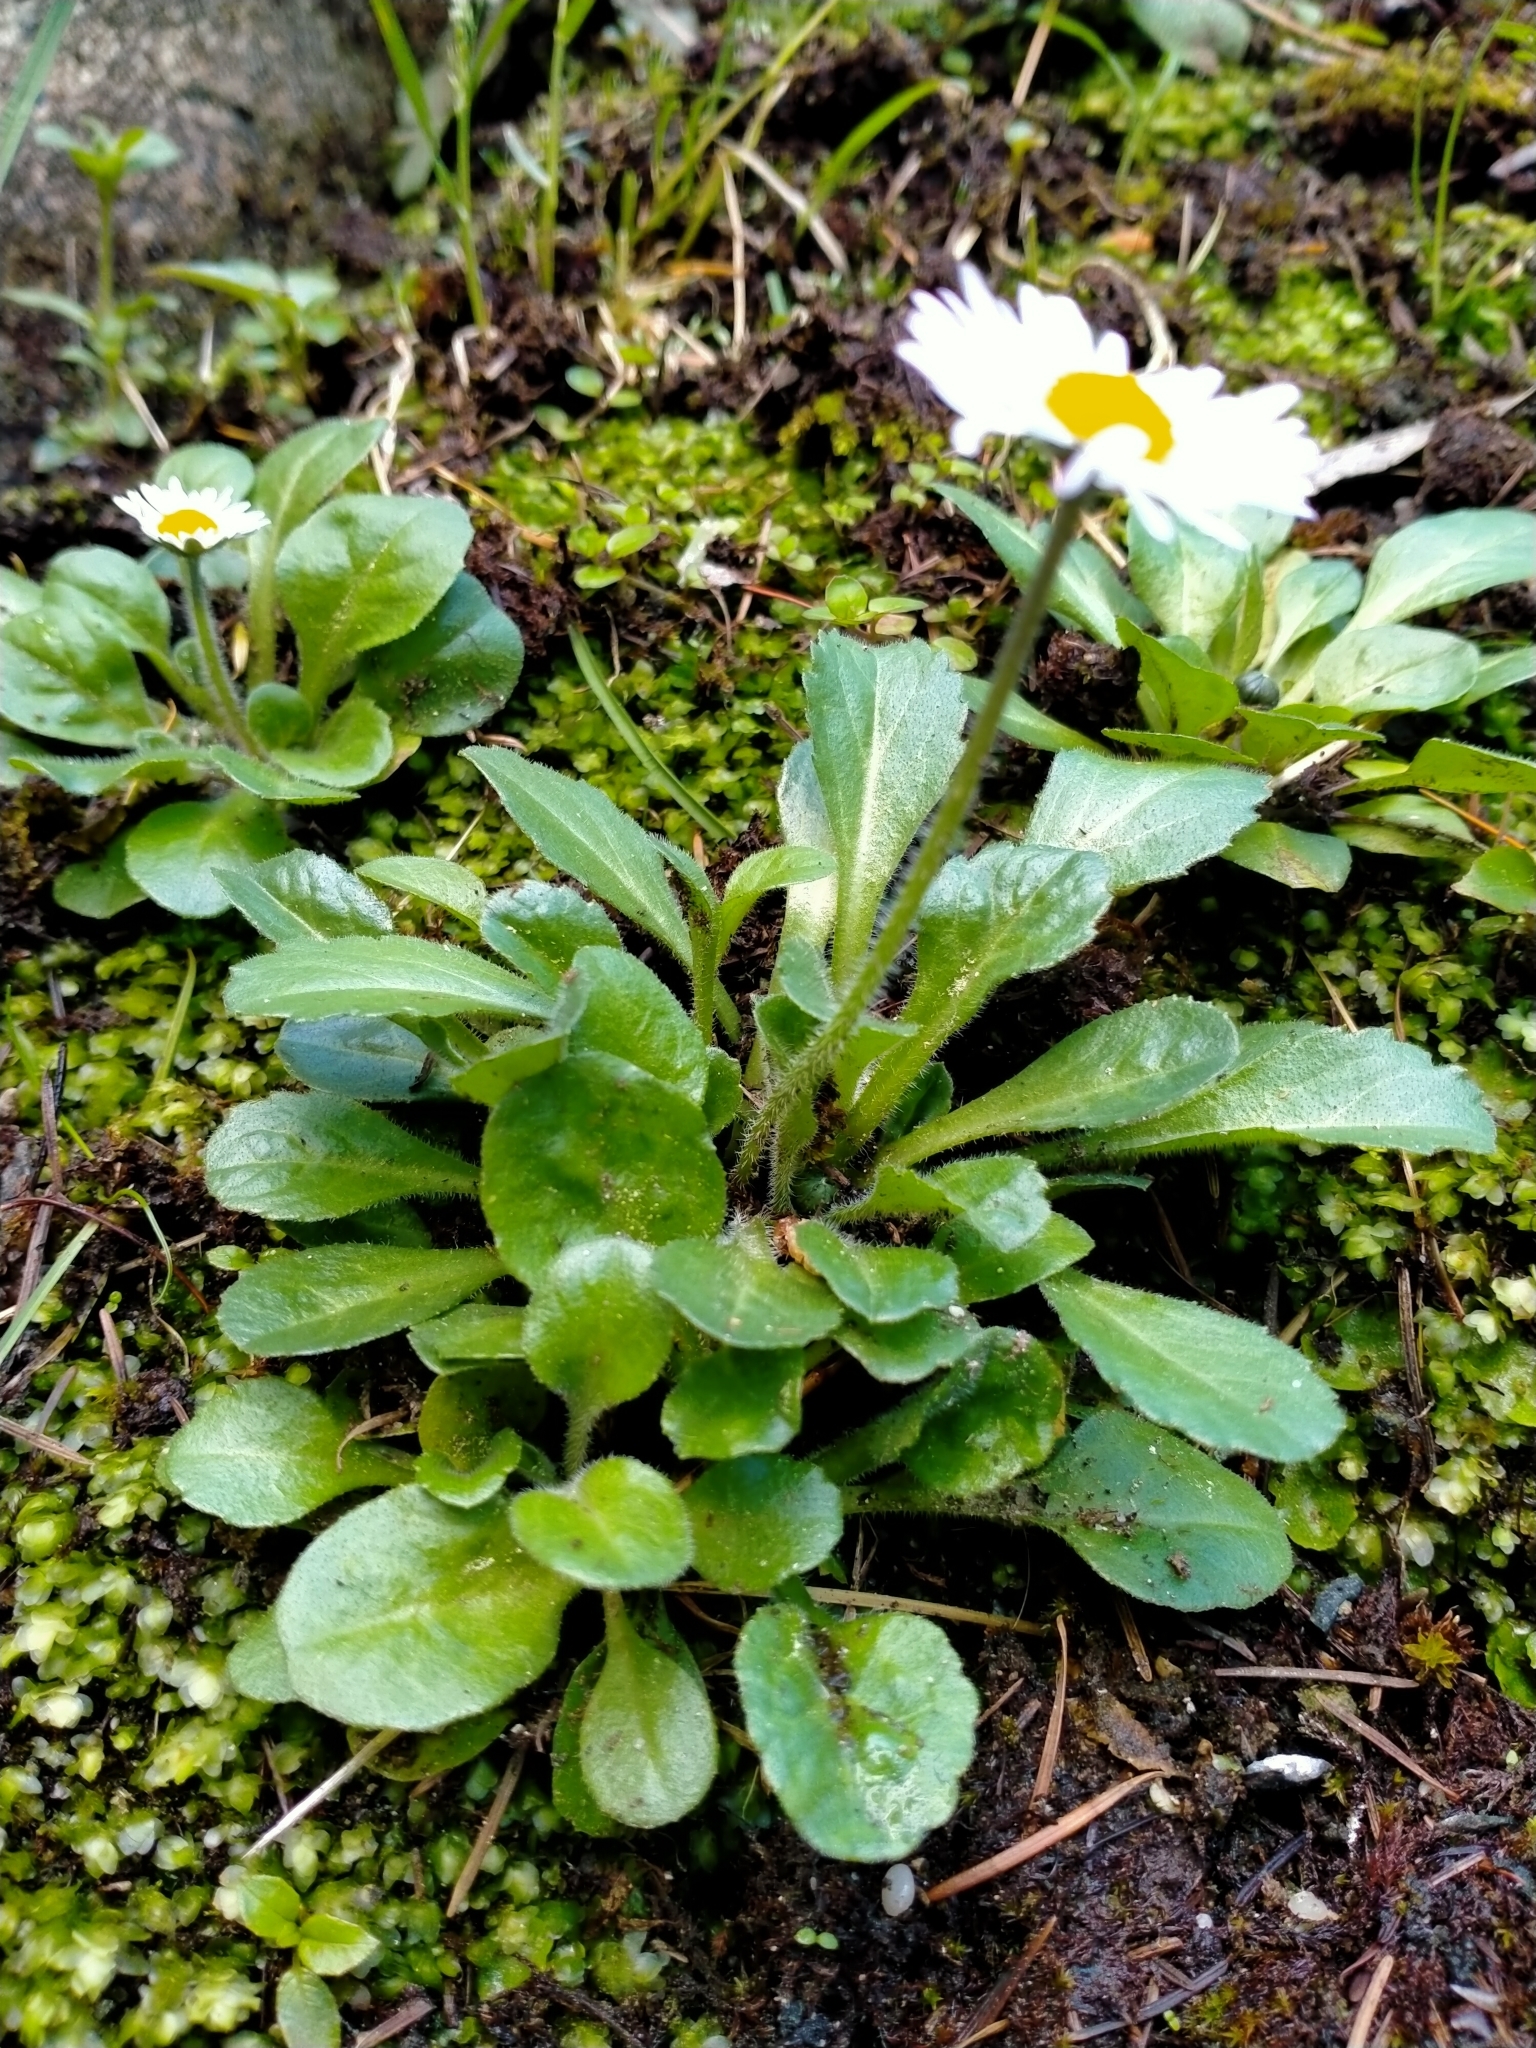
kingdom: Plantae
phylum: Tracheophyta
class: Magnoliopsida
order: Asterales
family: Asteraceae
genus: Bellis
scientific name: Bellis perennis
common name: Lawndaisy
